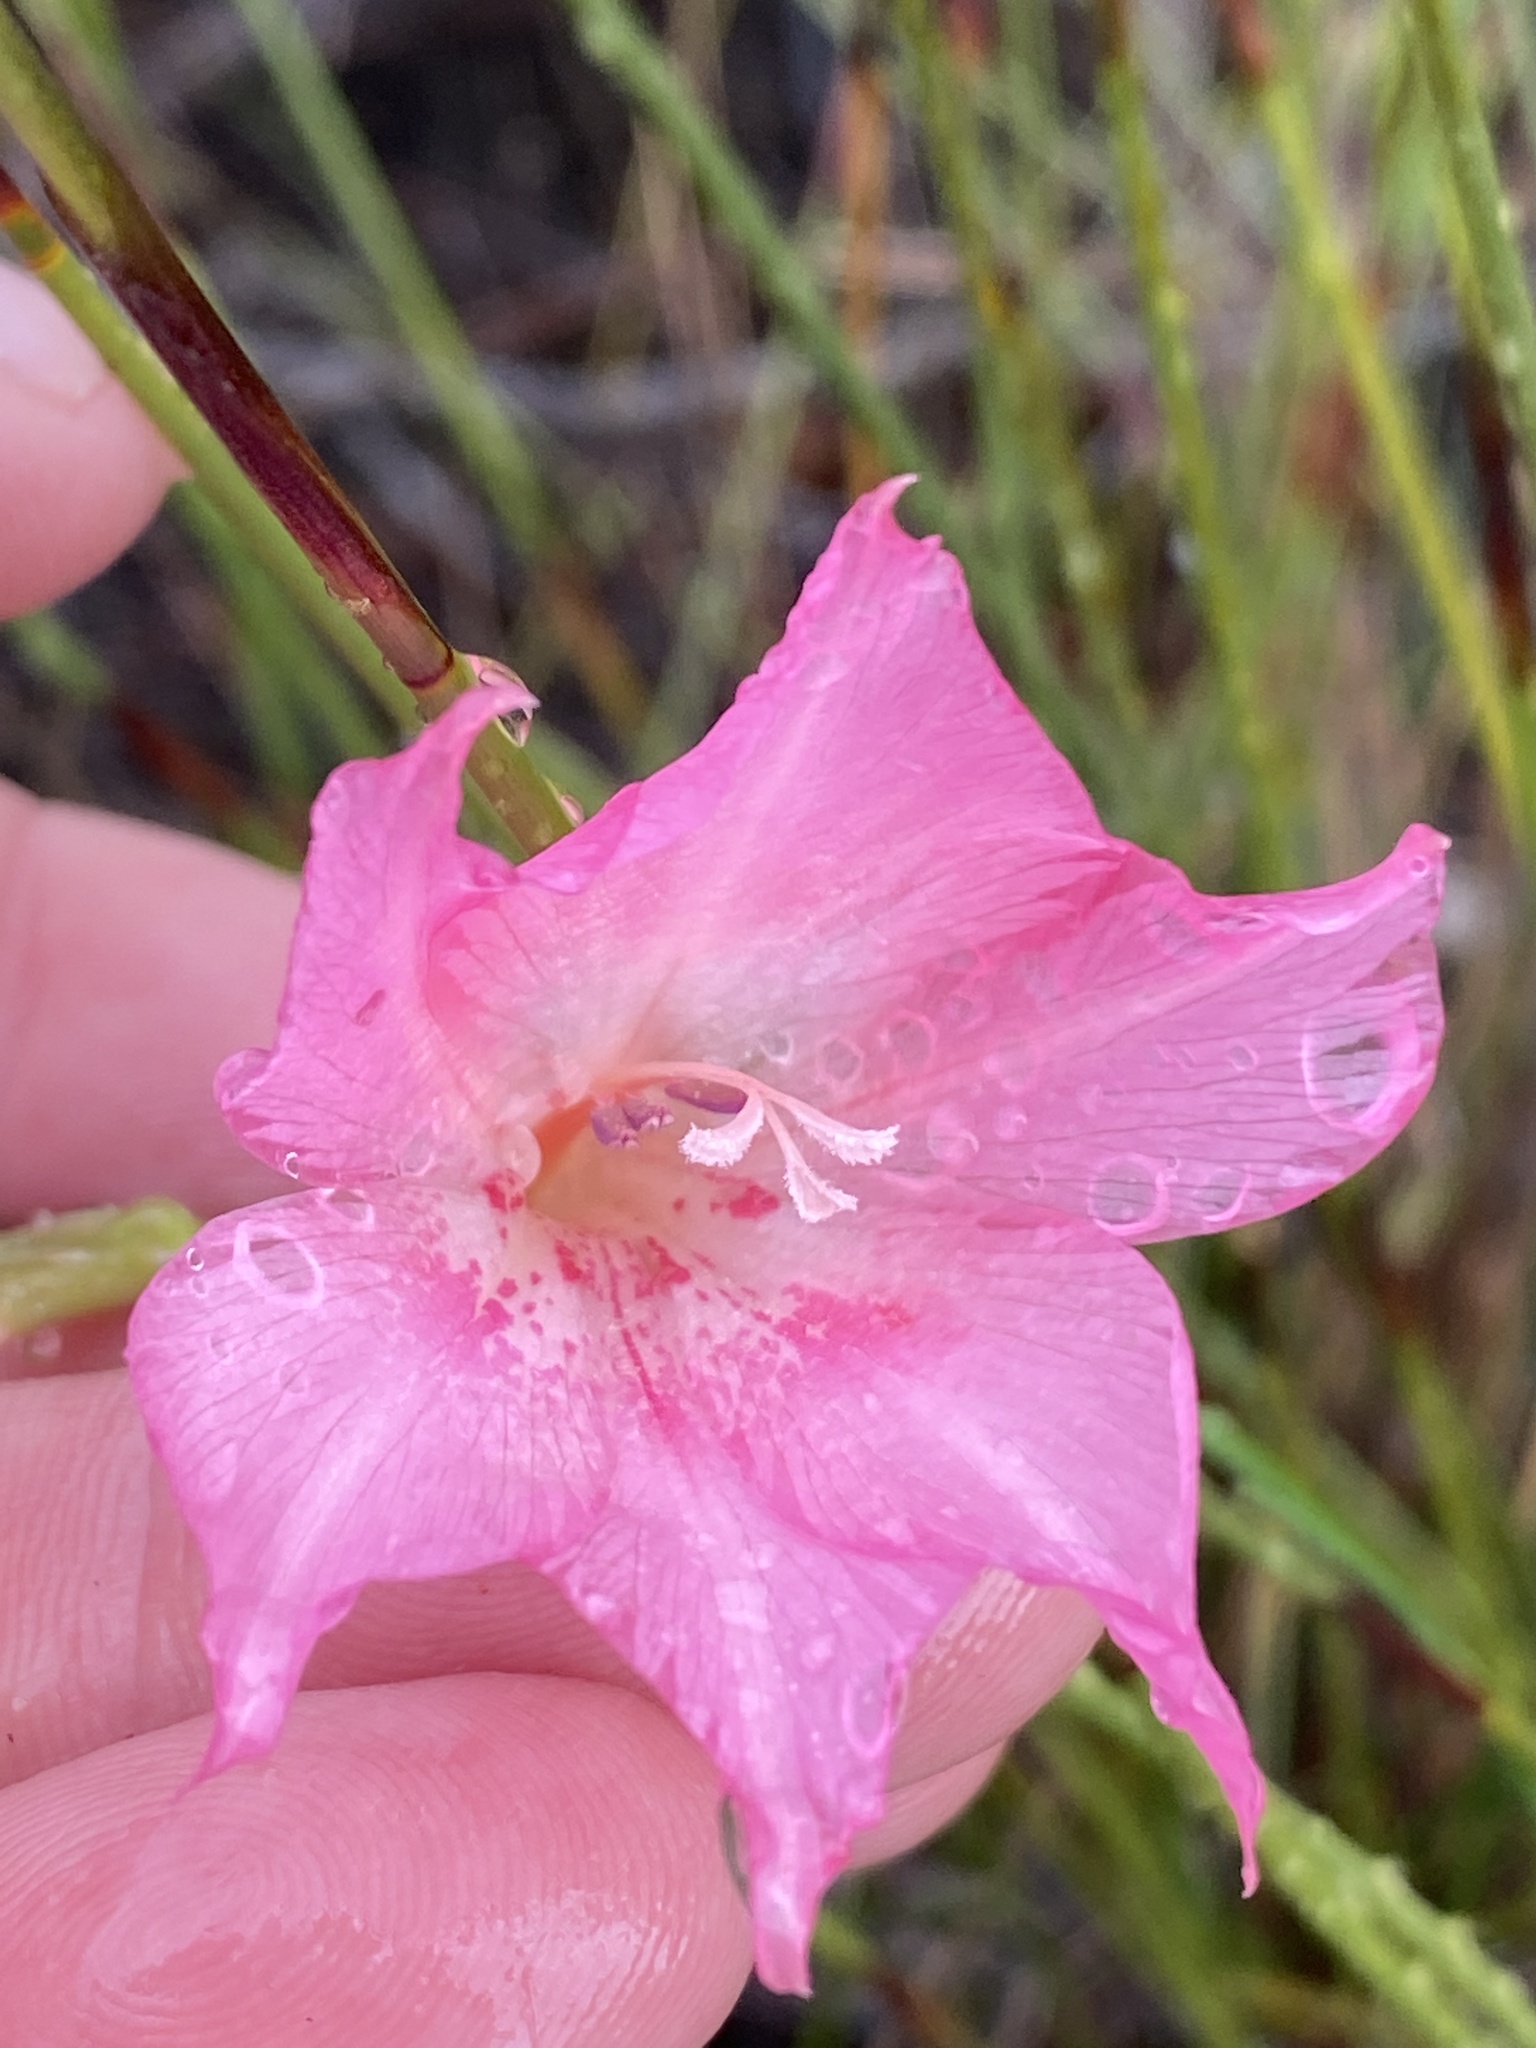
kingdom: Plantae
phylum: Tracheophyta
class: Liliopsida
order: Asparagales
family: Iridaceae
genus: Gladiolus
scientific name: Gladiolus meridionalis
